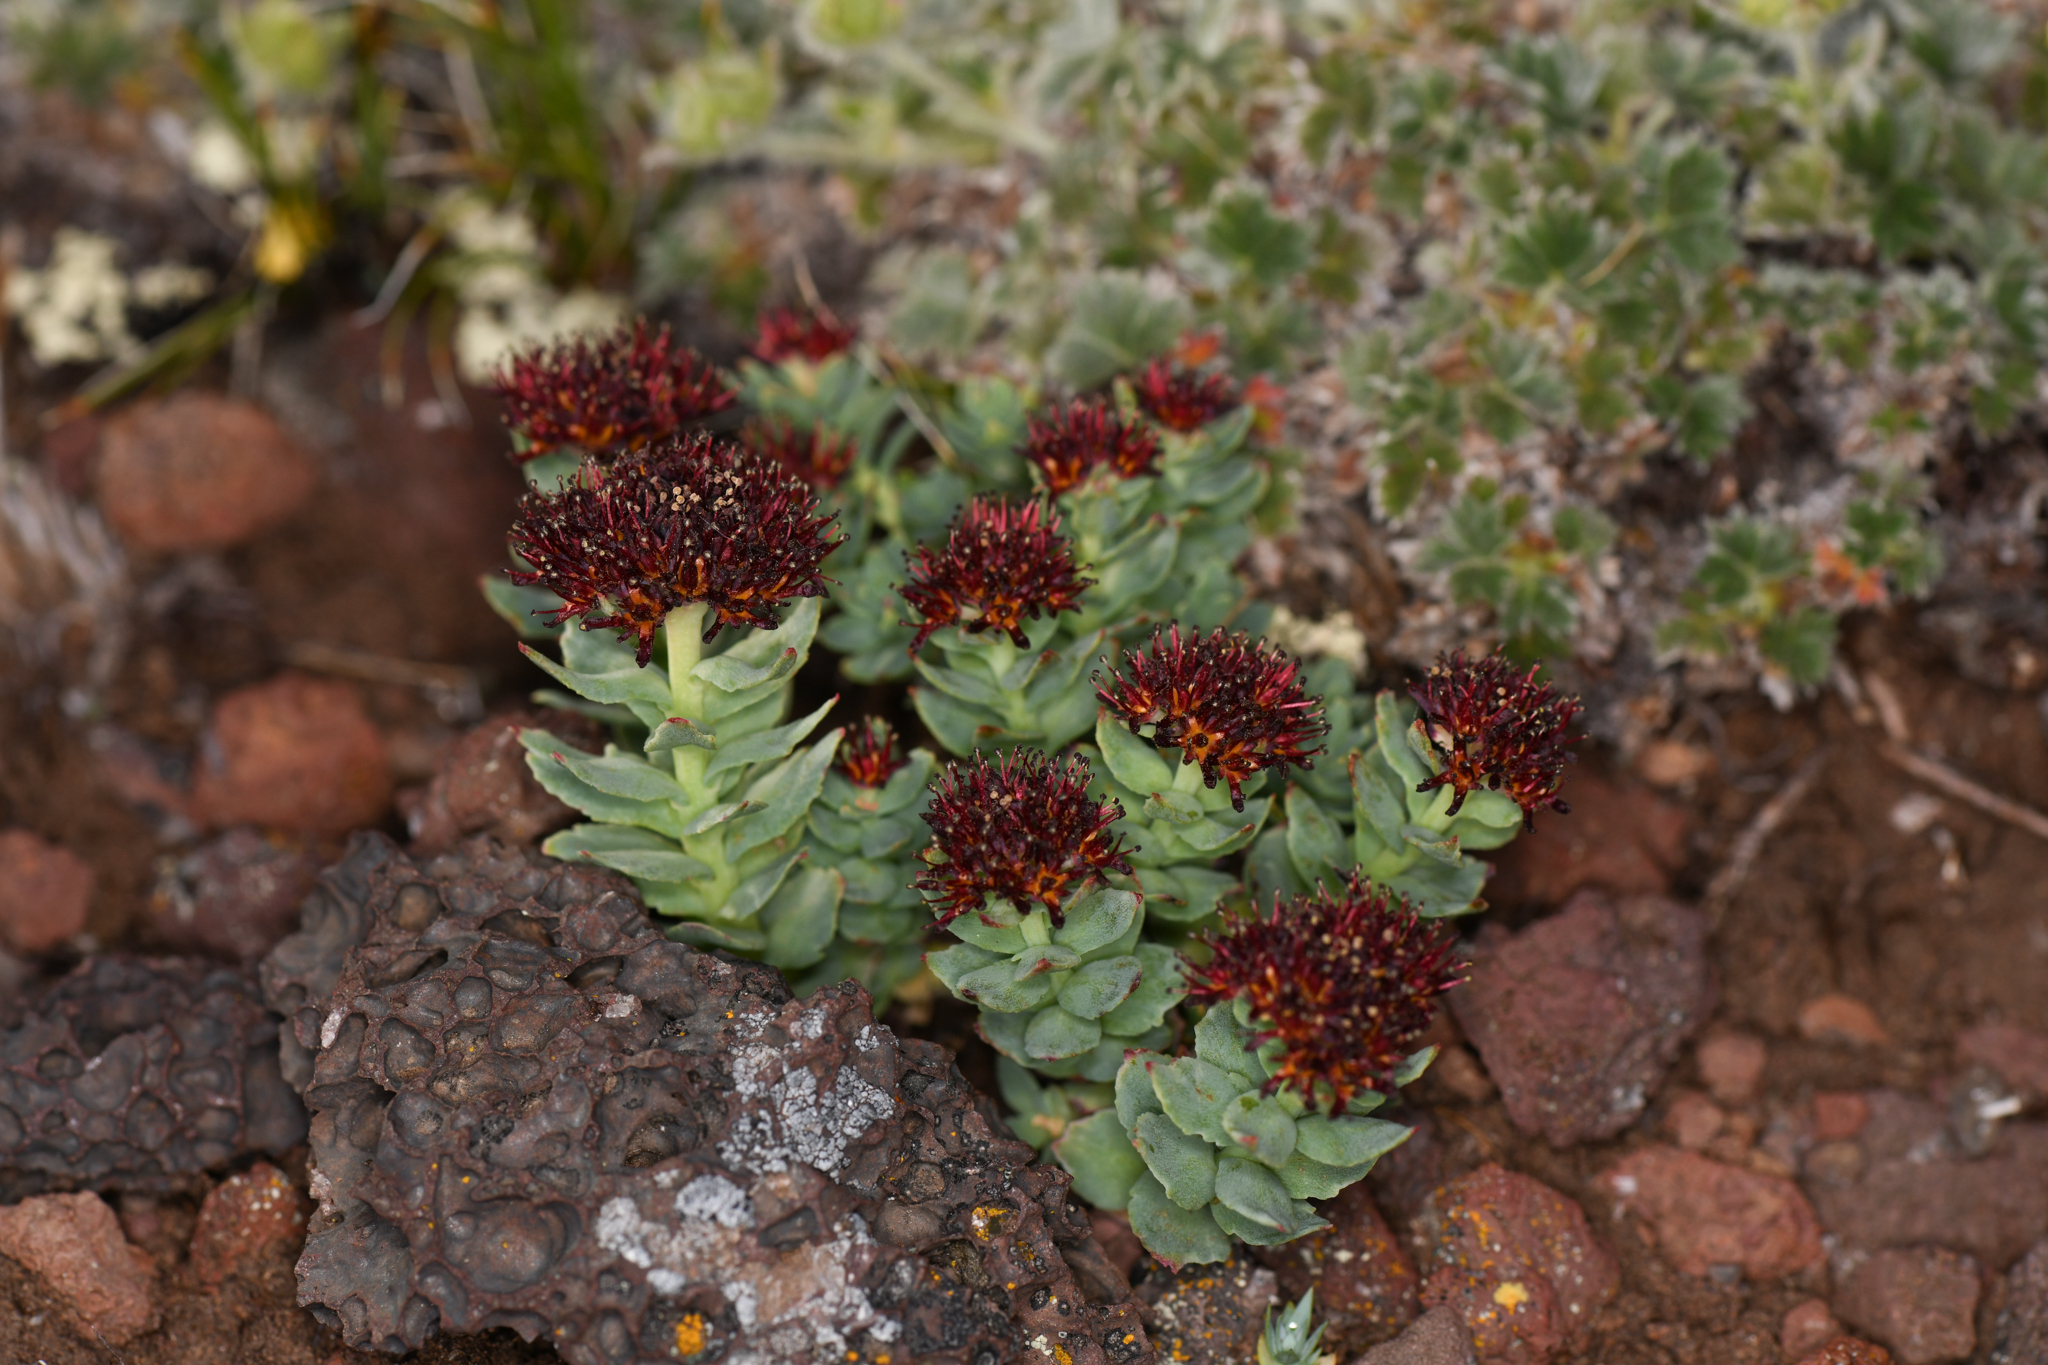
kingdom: Plantae
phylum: Tracheophyta
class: Magnoliopsida
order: Saxifragales
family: Crassulaceae
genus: Rhodiola
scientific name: Rhodiola integrifolia
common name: Western roseroot
